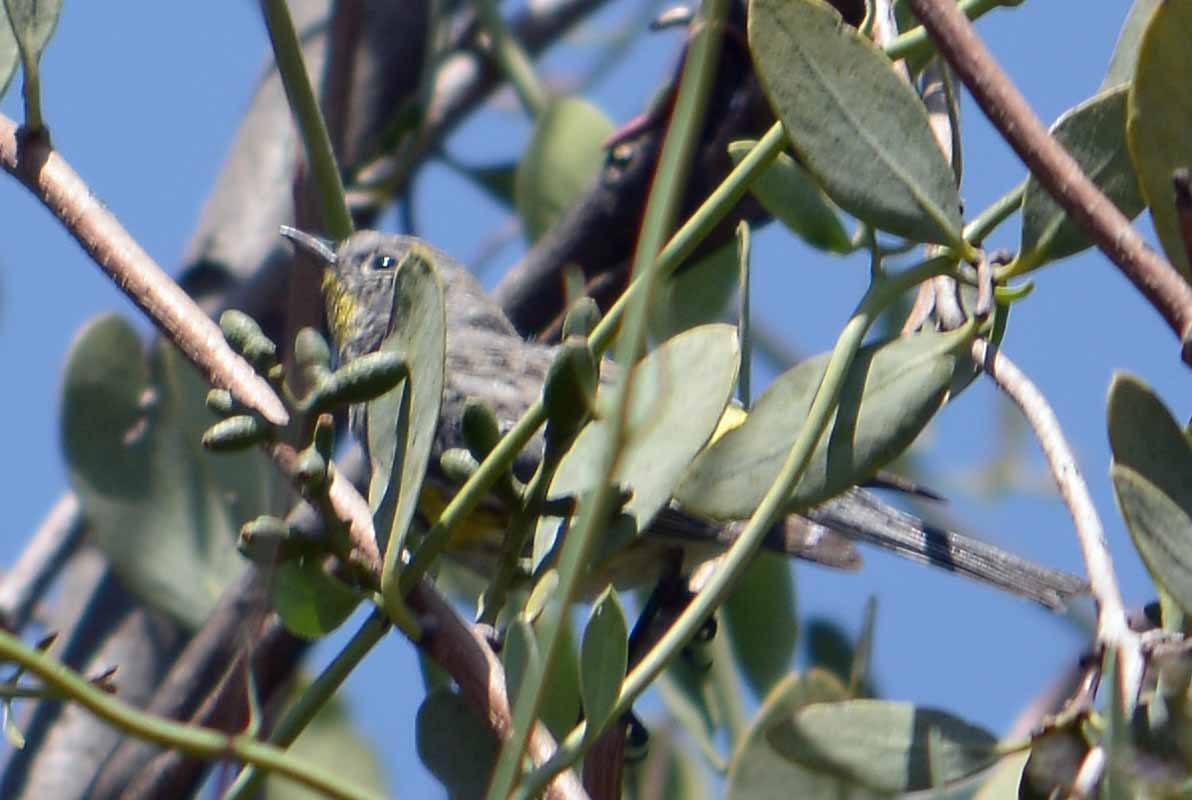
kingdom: Animalia
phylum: Chordata
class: Aves
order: Passeriformes
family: Parulidae
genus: Setophaga
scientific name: Setophaga coronata
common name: Myrtle warbler
